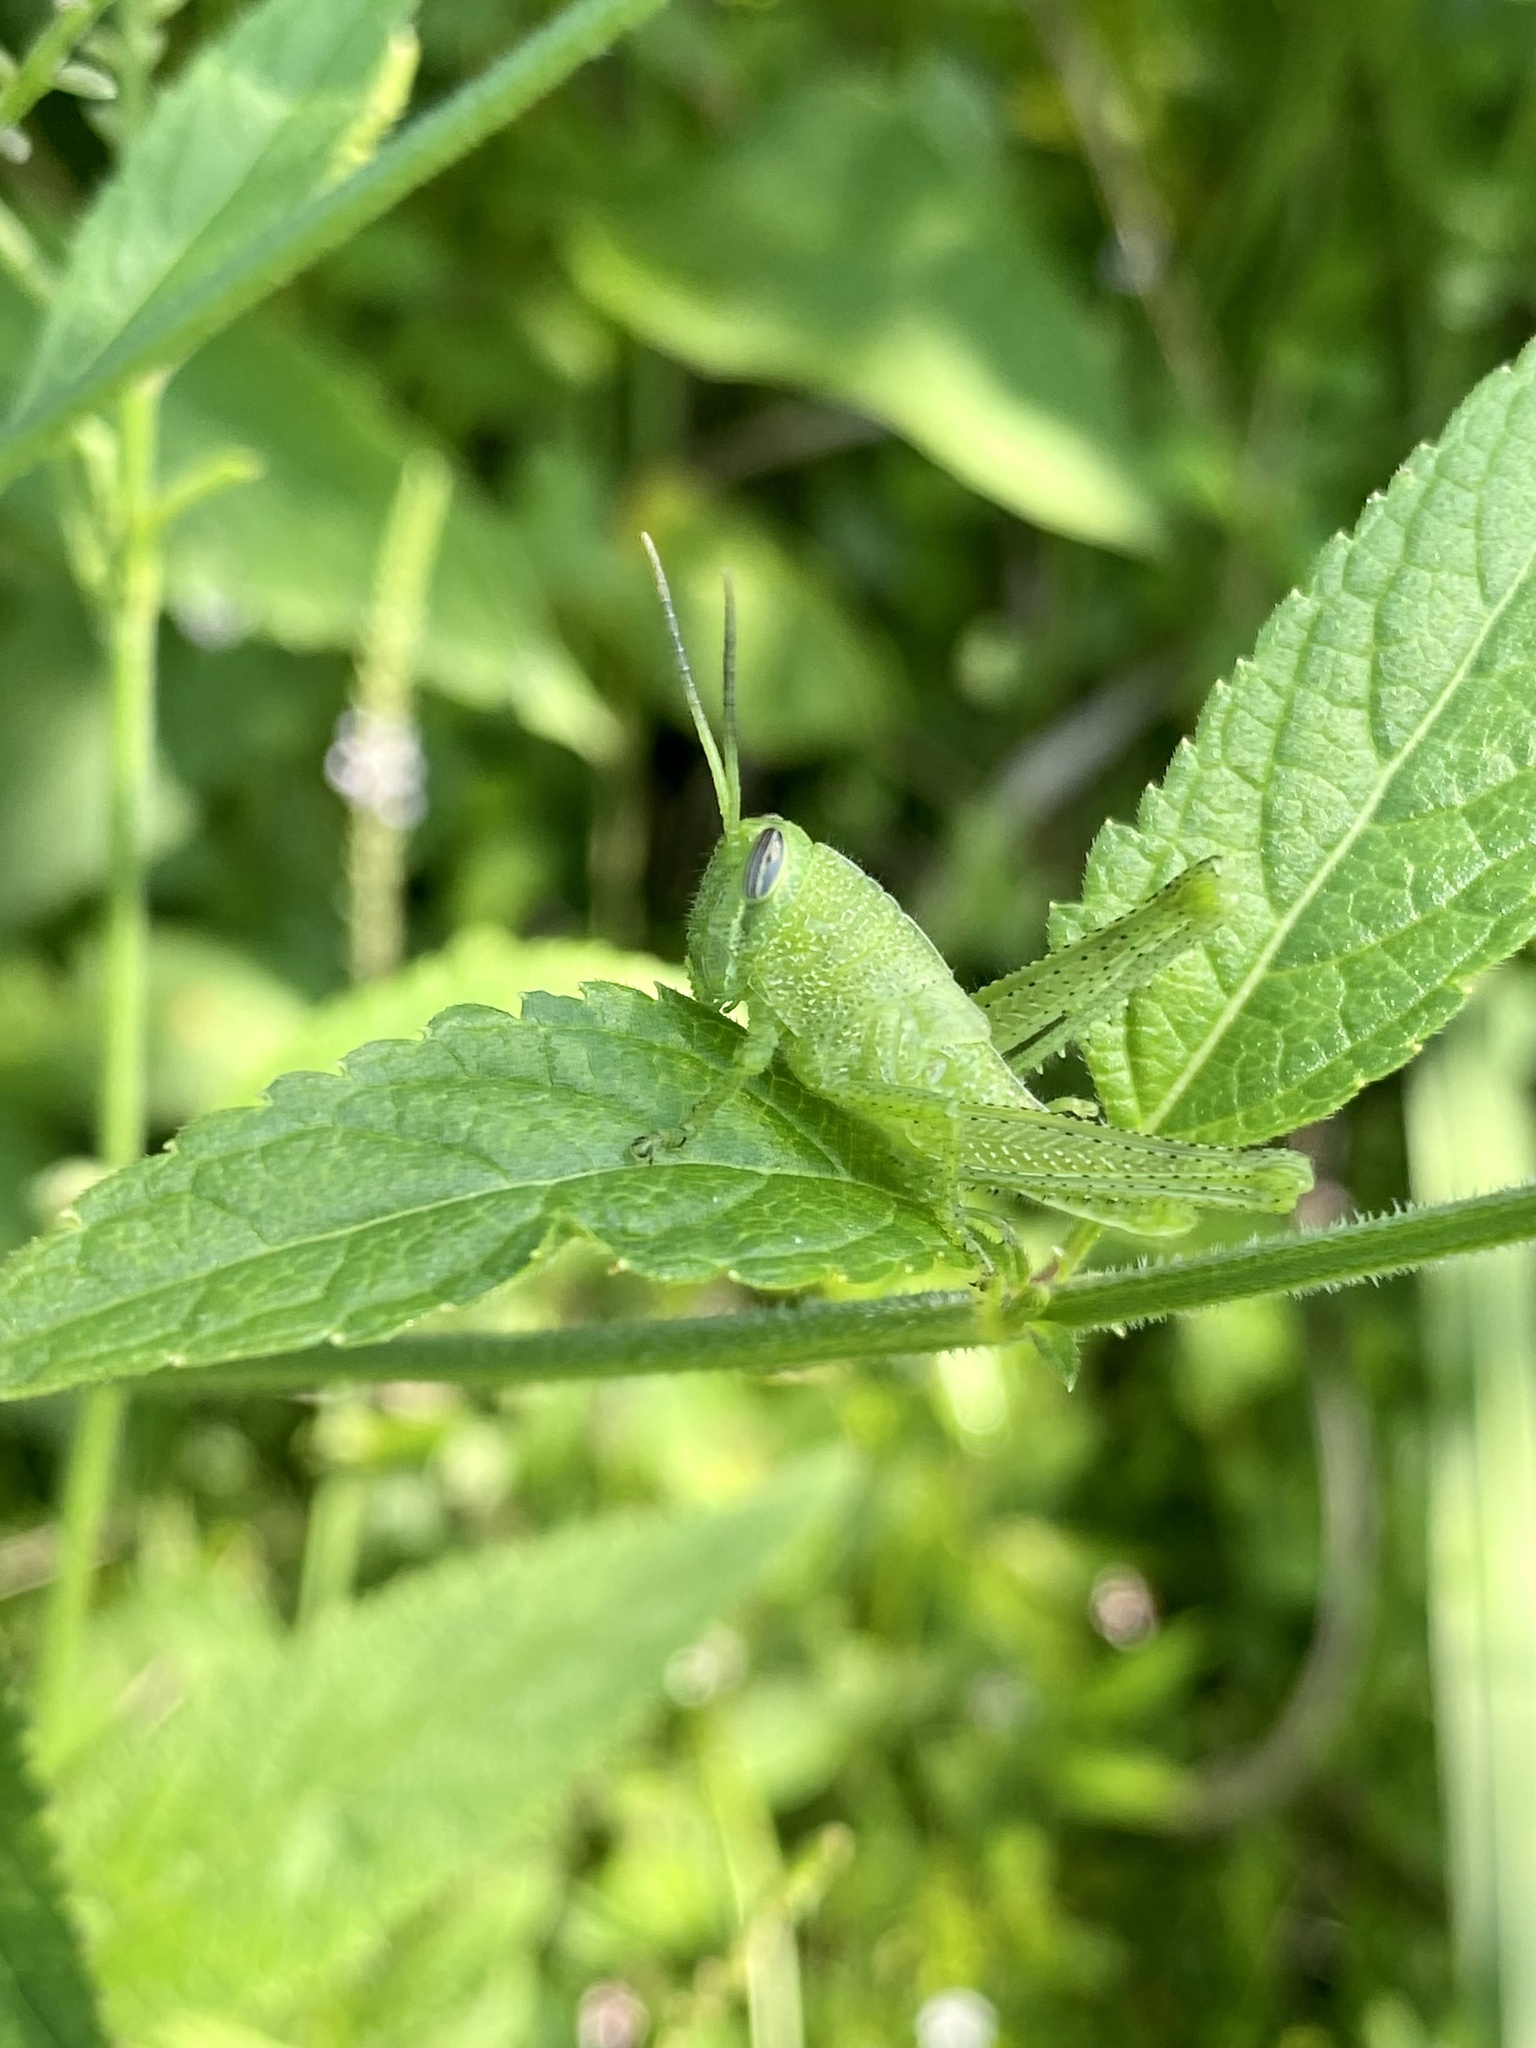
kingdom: Animalia
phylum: Arthropoda
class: Insecta
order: Orthoptera
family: Acrididae
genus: Schistocerca
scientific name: Schistocerca obscura
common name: Obscure bird grasshopper
